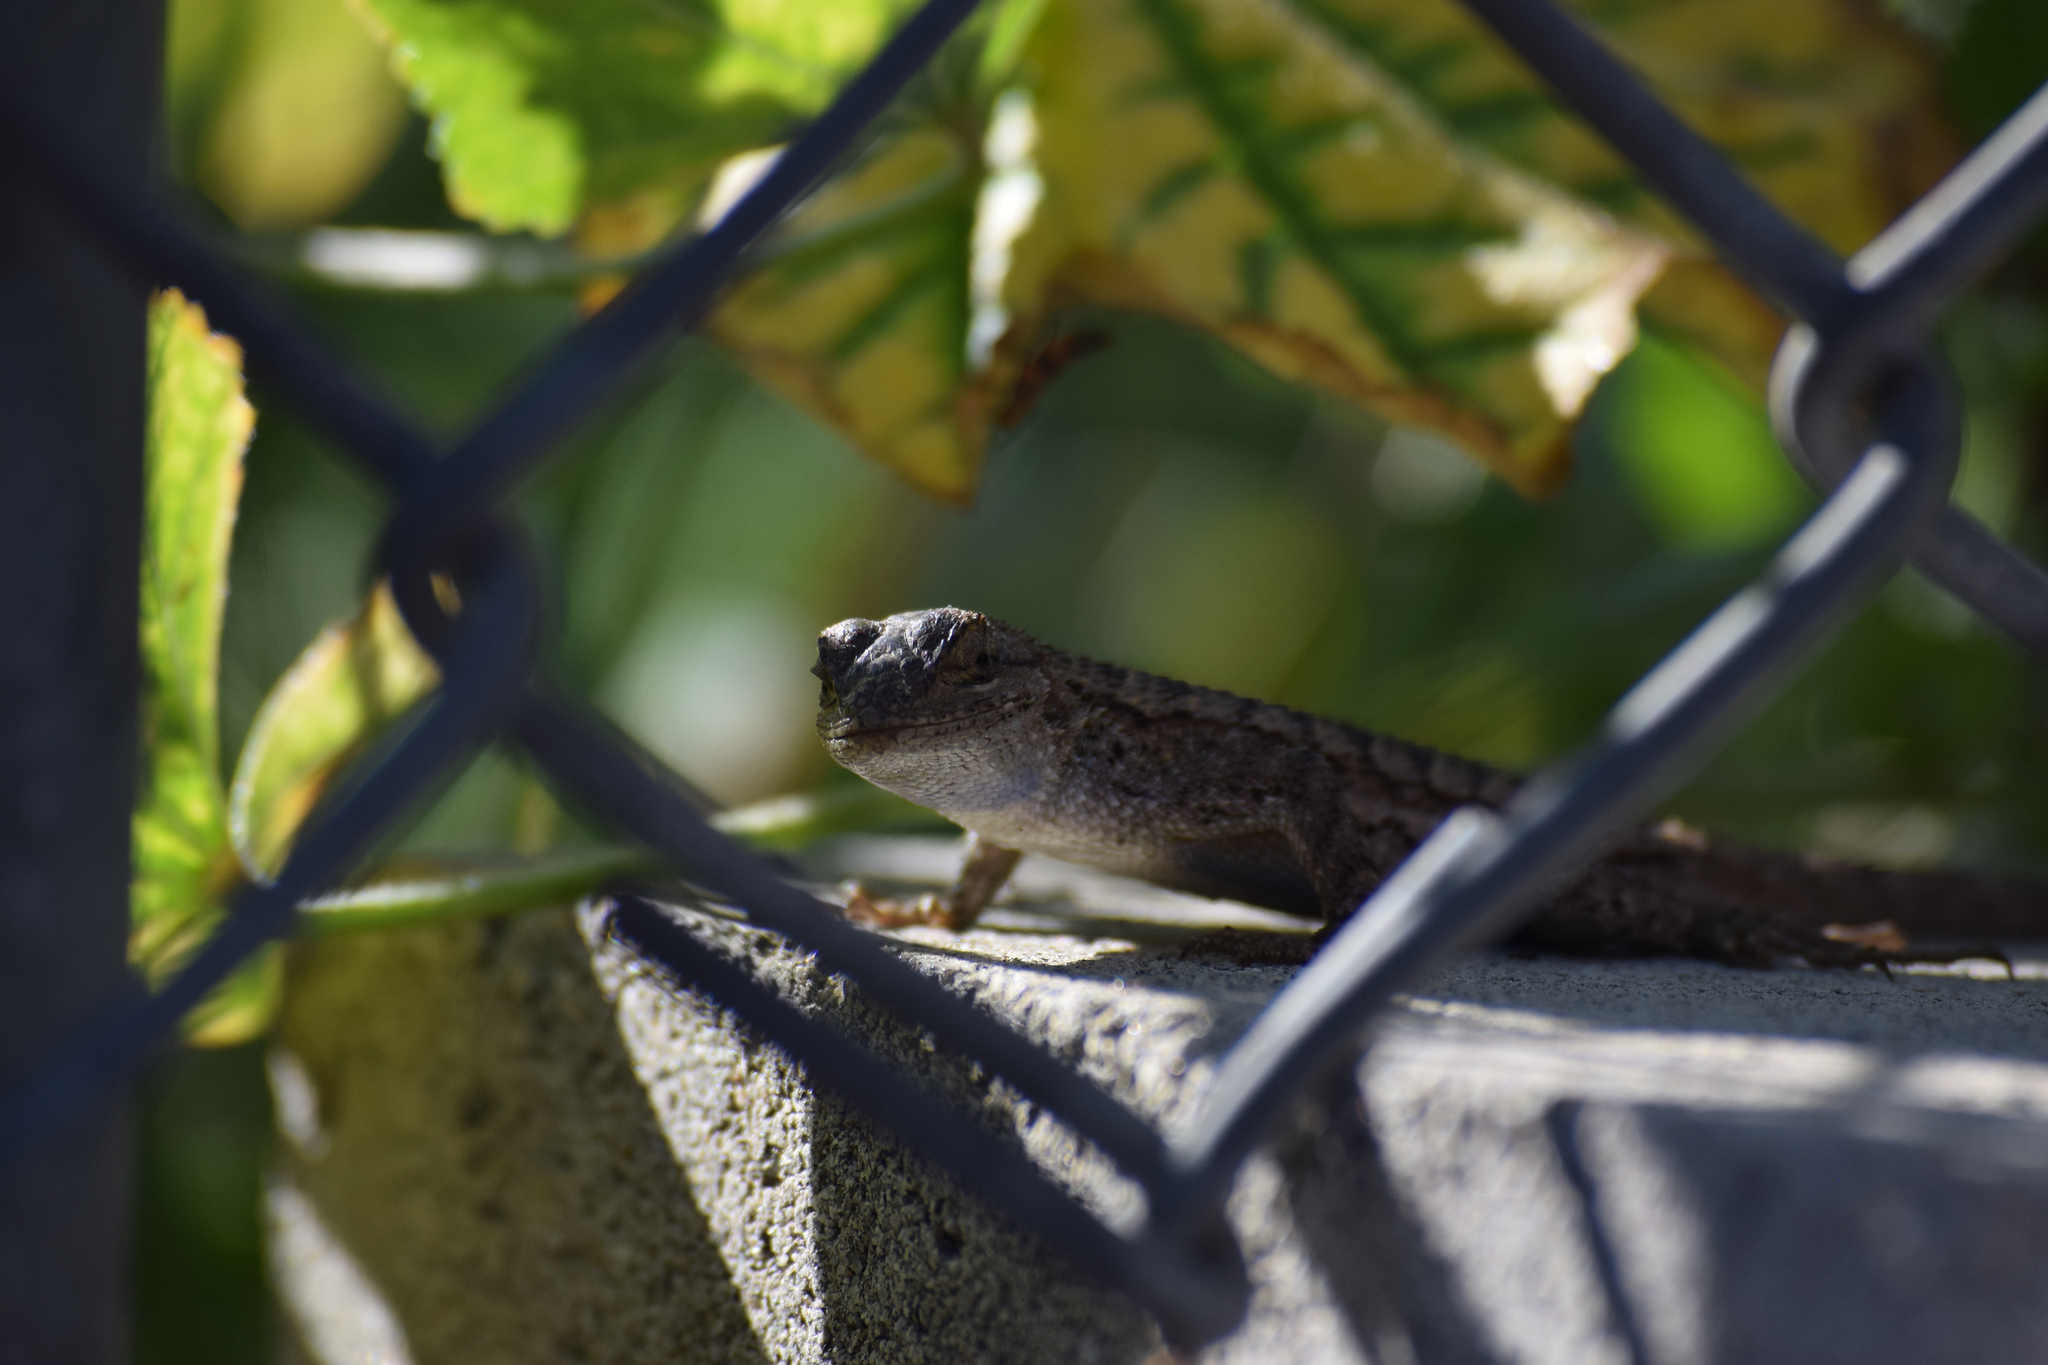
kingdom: Animalia
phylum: Chordata
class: Squamata
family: Phrynosomatidae
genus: Sceloporus
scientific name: Sceloporus occidentalis
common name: Western fence lizard
